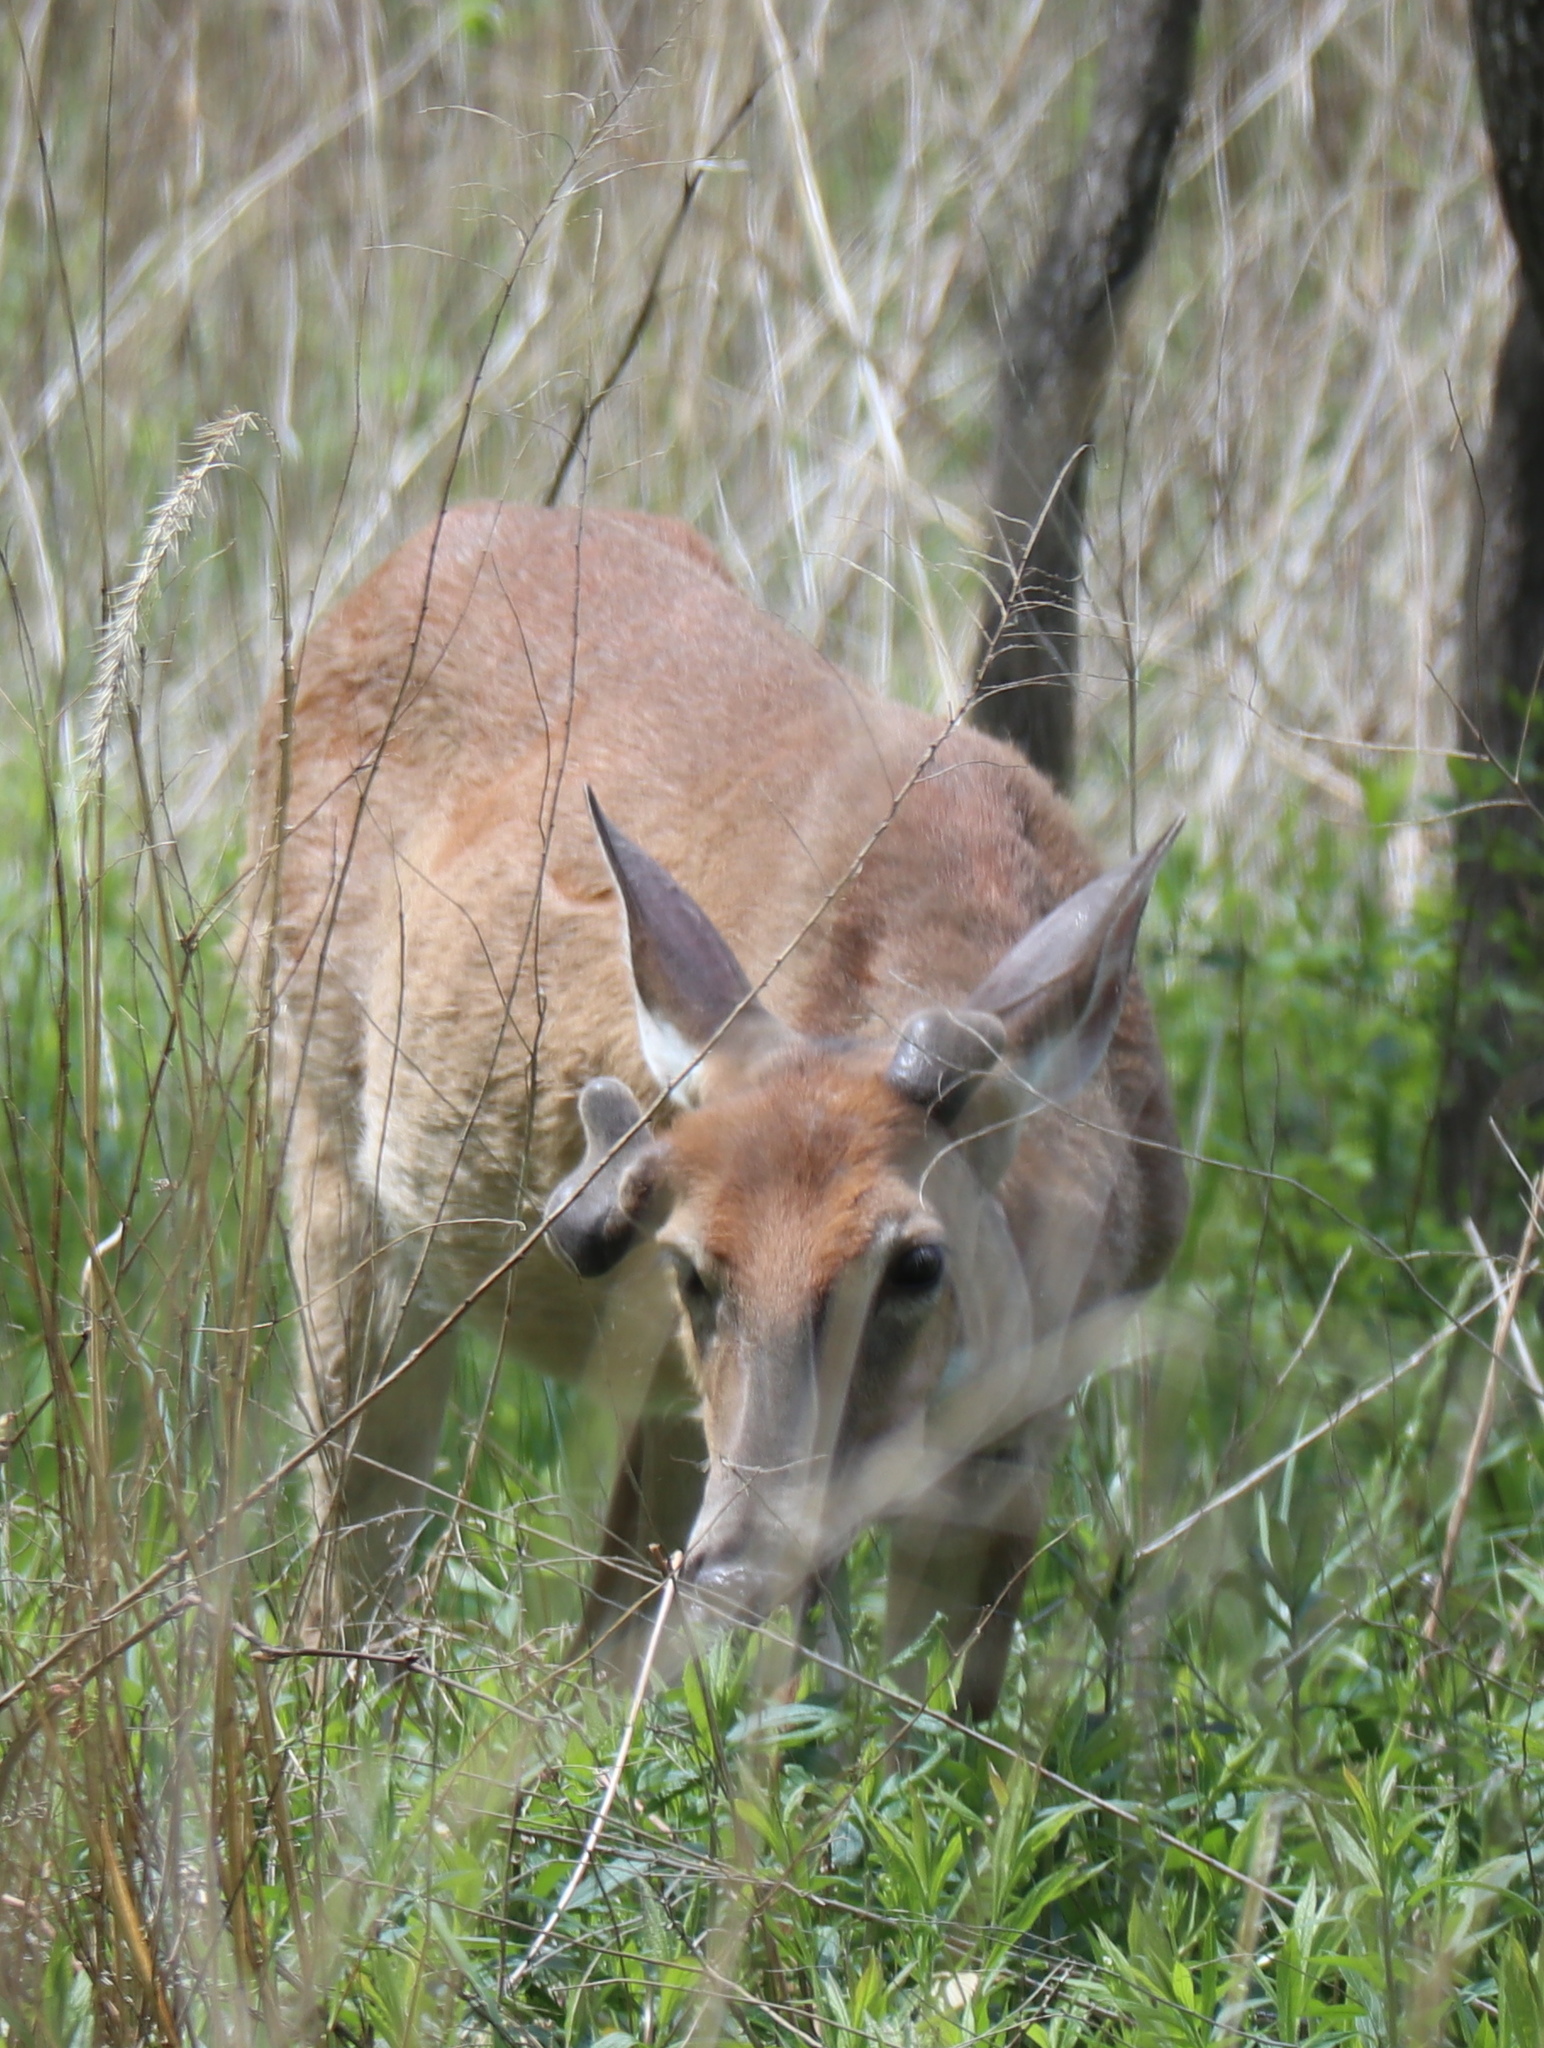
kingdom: Animalia
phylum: Chordata
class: Mammalia
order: Artiodactyla
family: Cervidae
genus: Odocoileus
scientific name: Odocoileus virginianus
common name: White-tailed deer
